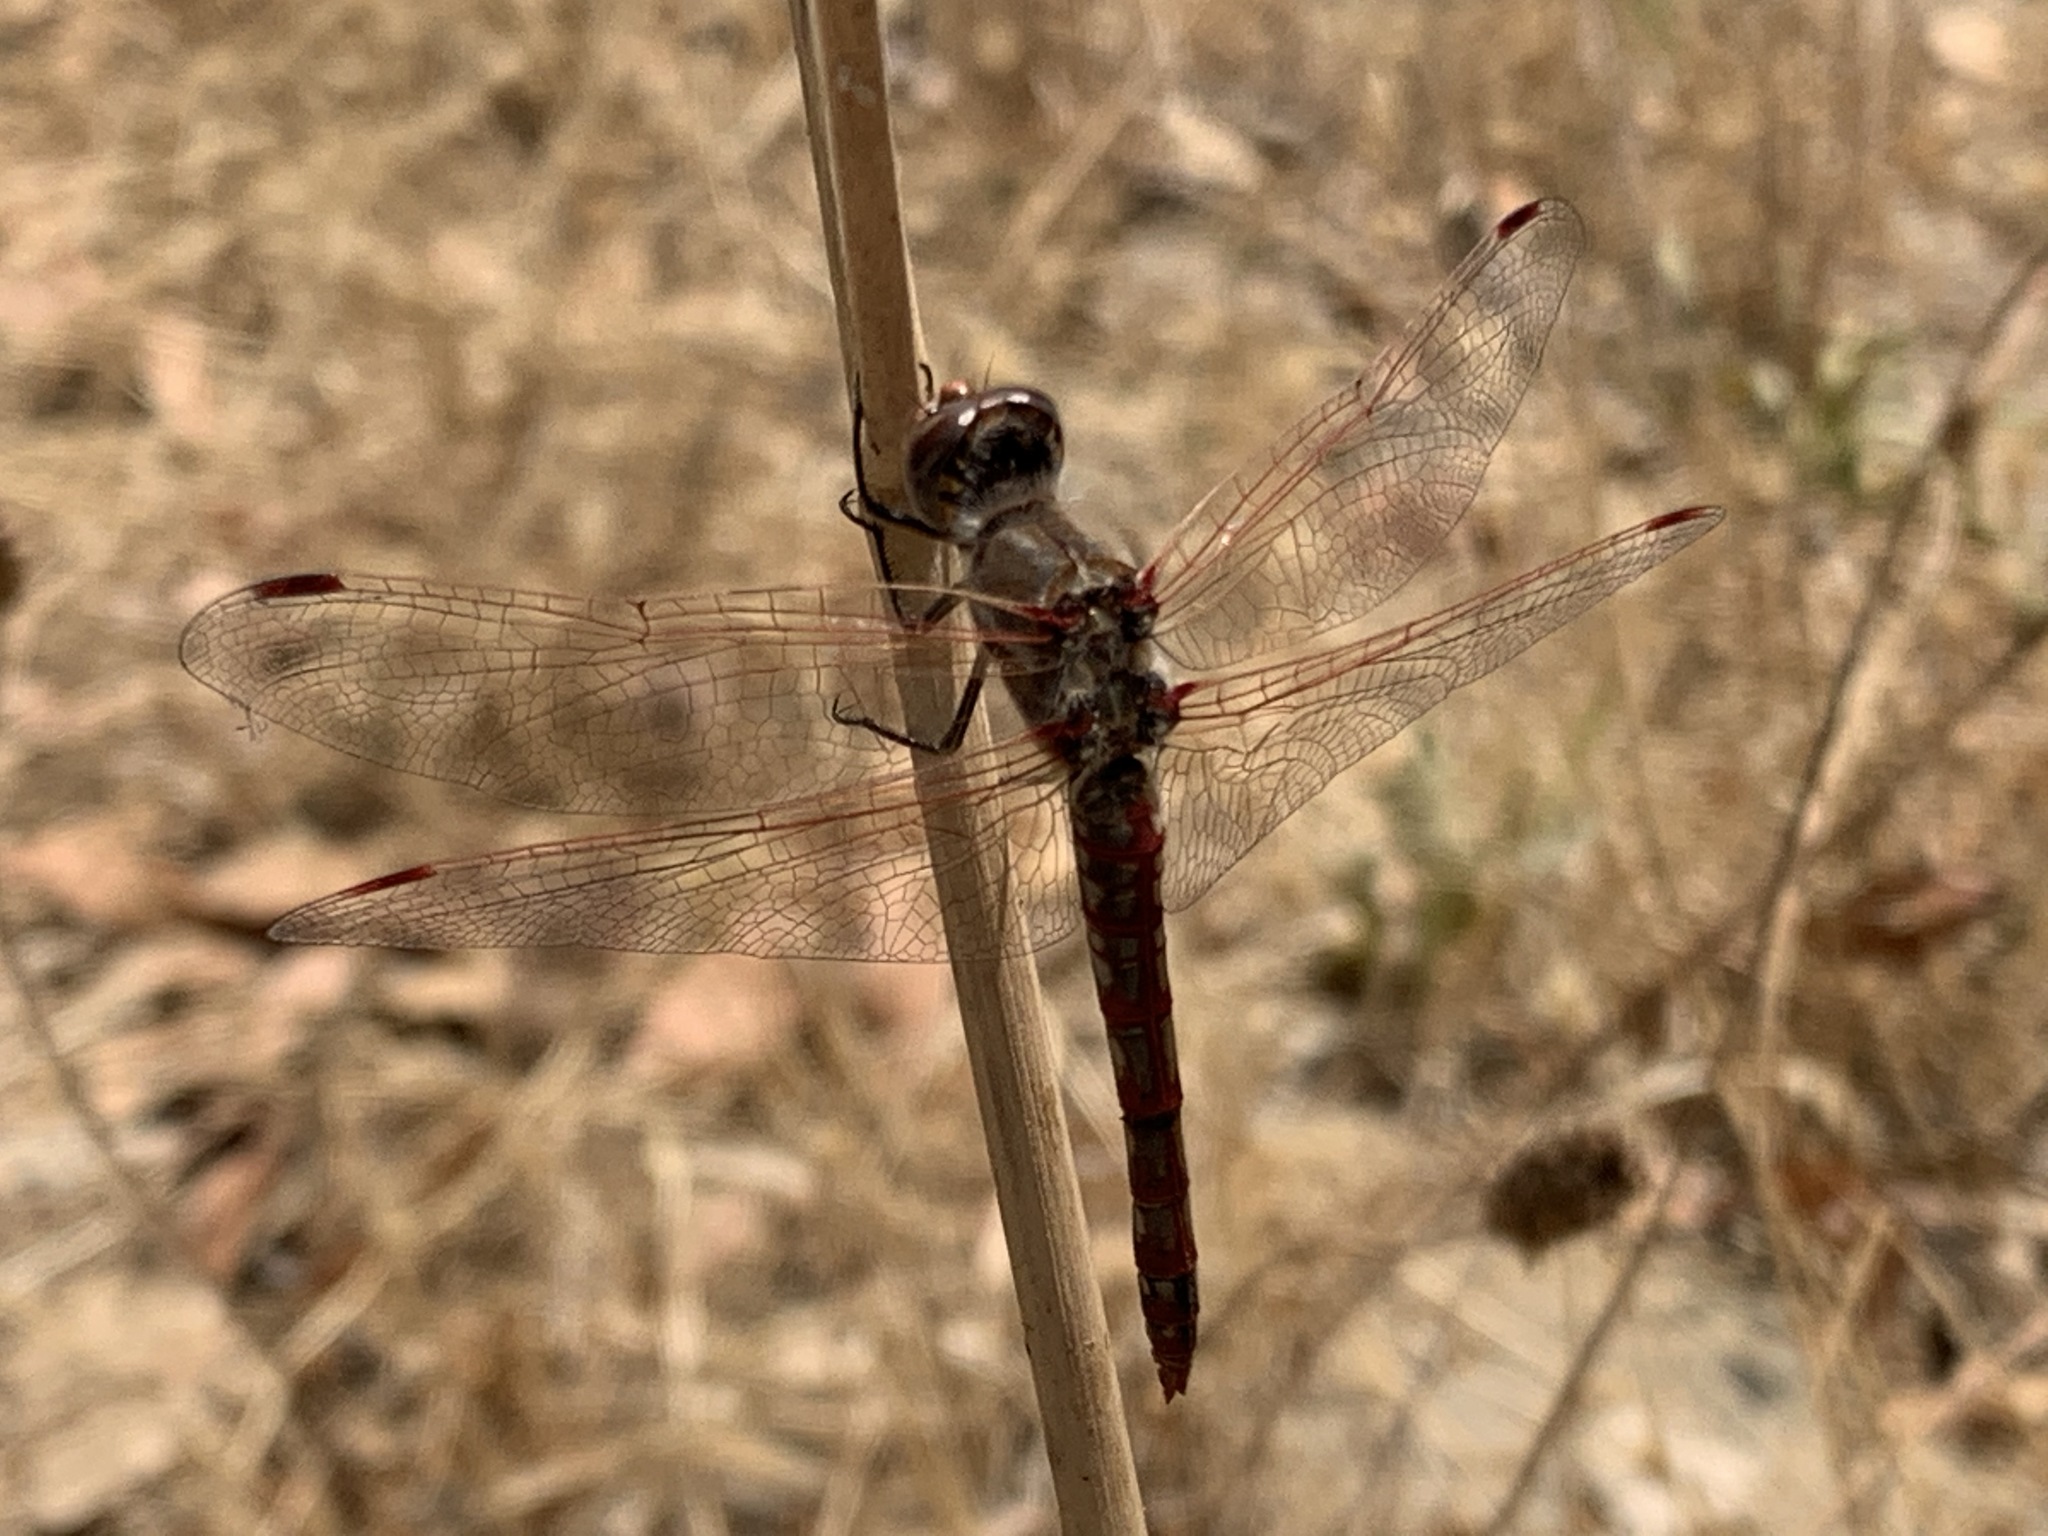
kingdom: Animalia
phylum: Arthropoda
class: Insecta
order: Odonata
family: Libellulidae
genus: Sympetrum
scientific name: Sympetrum corruptum
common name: Variegated meadowhawk
